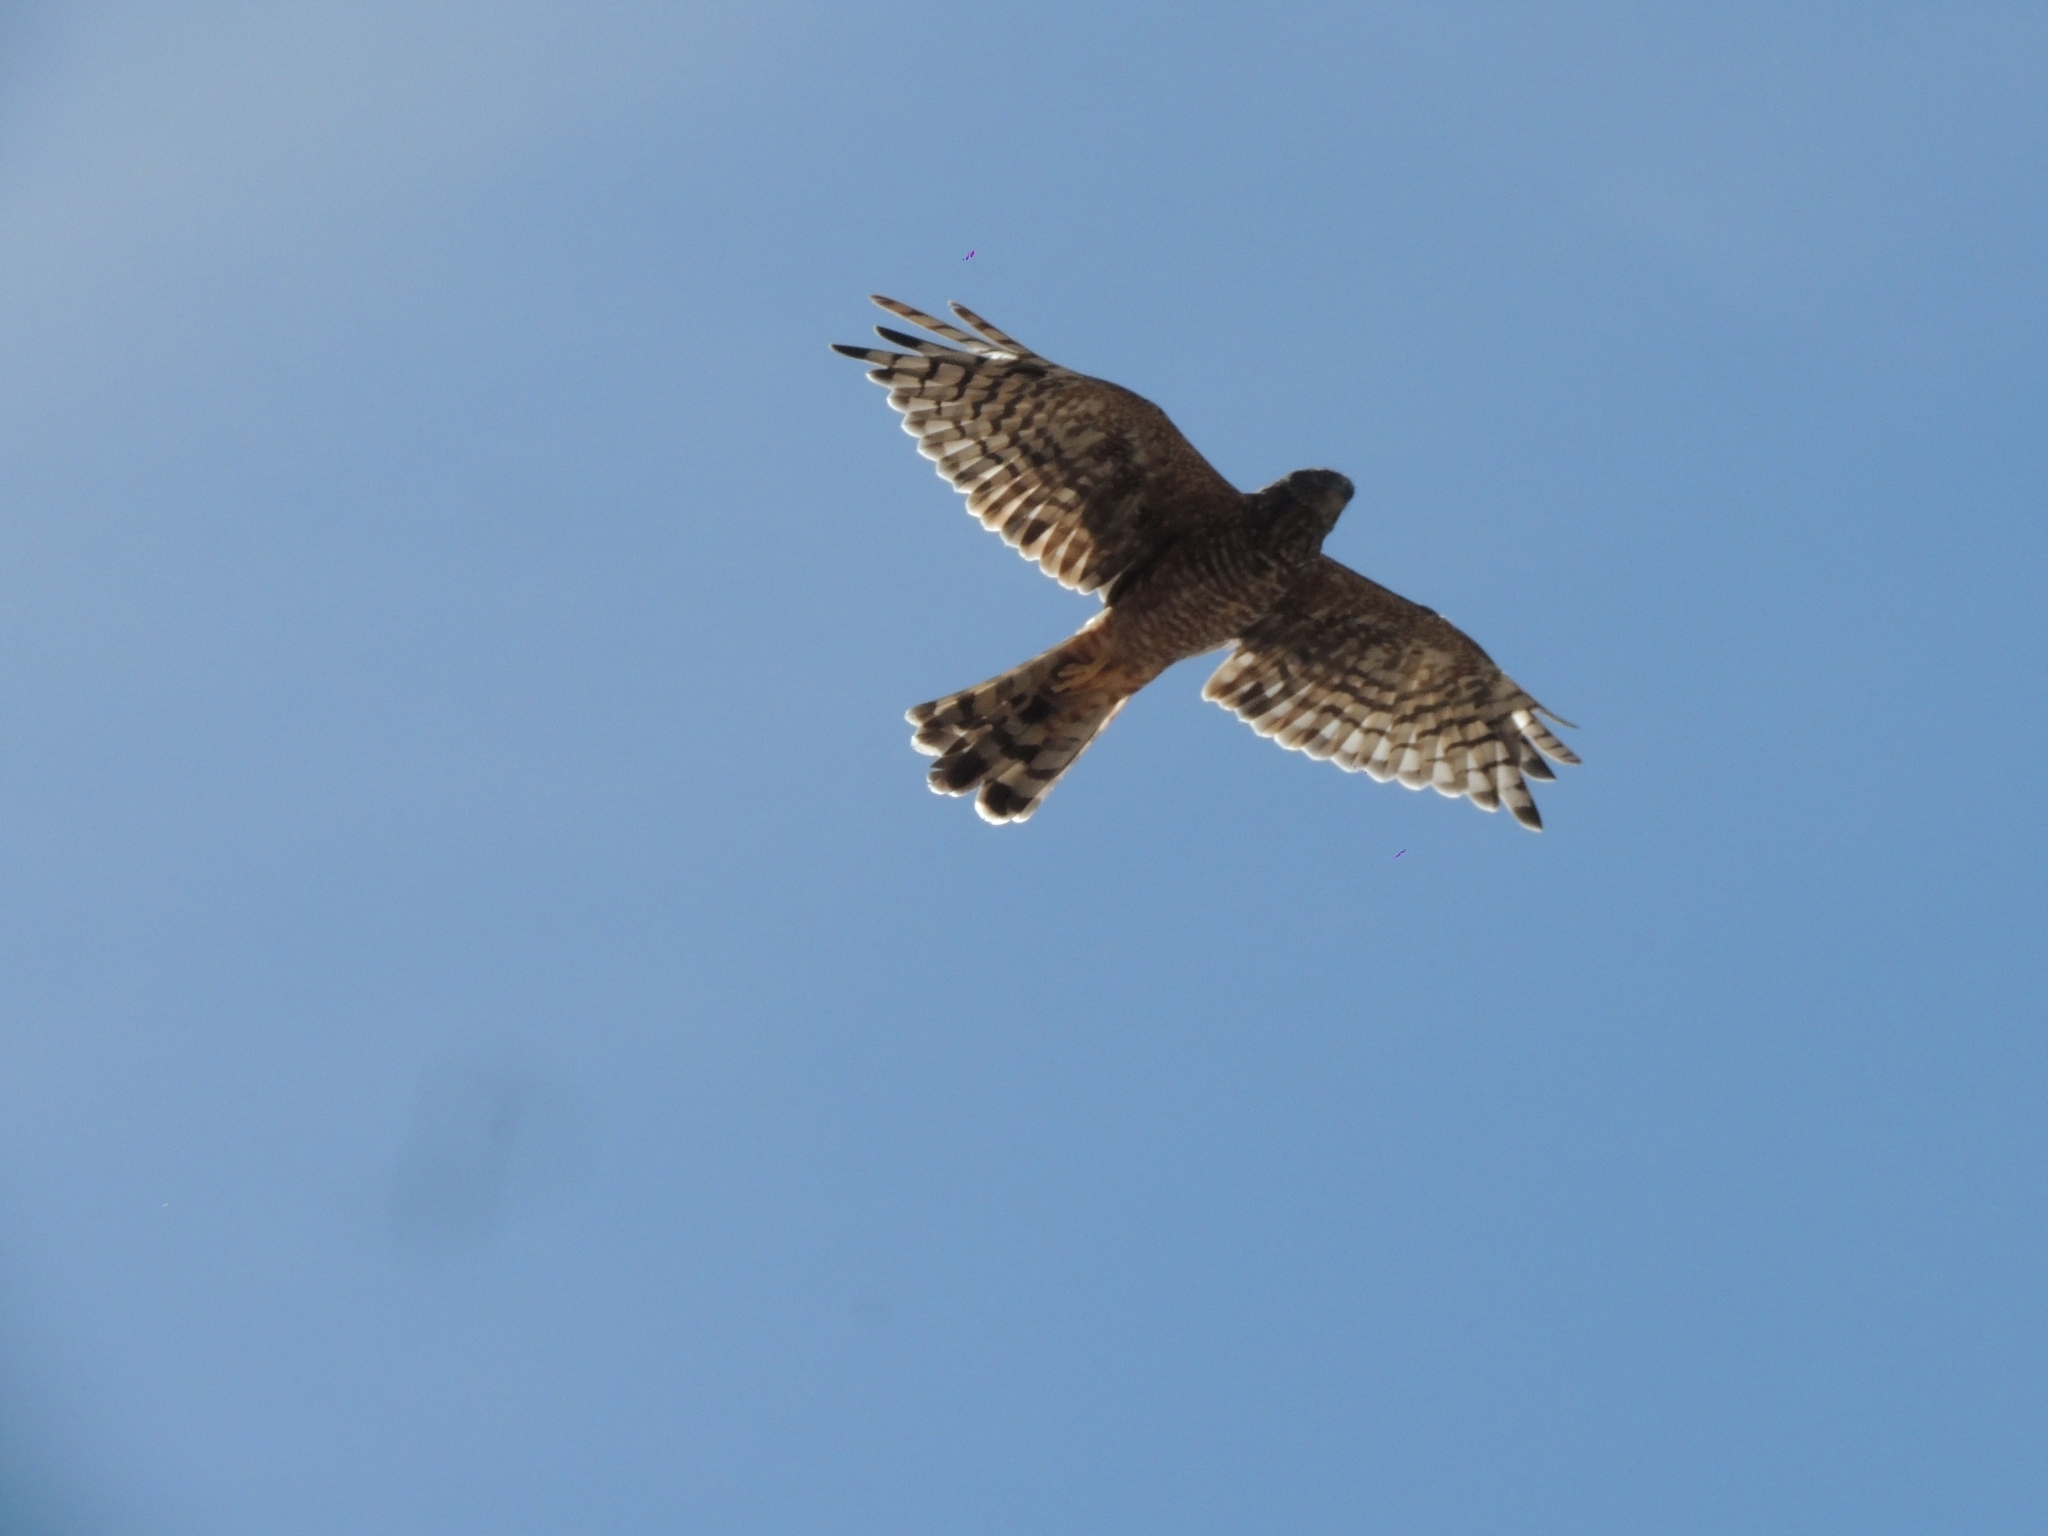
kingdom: Animalia
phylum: Chordata
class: Aves
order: Accipitriformes
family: Accipitridae
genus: Circus
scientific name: Circus cinereus
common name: Cinereous harrier
